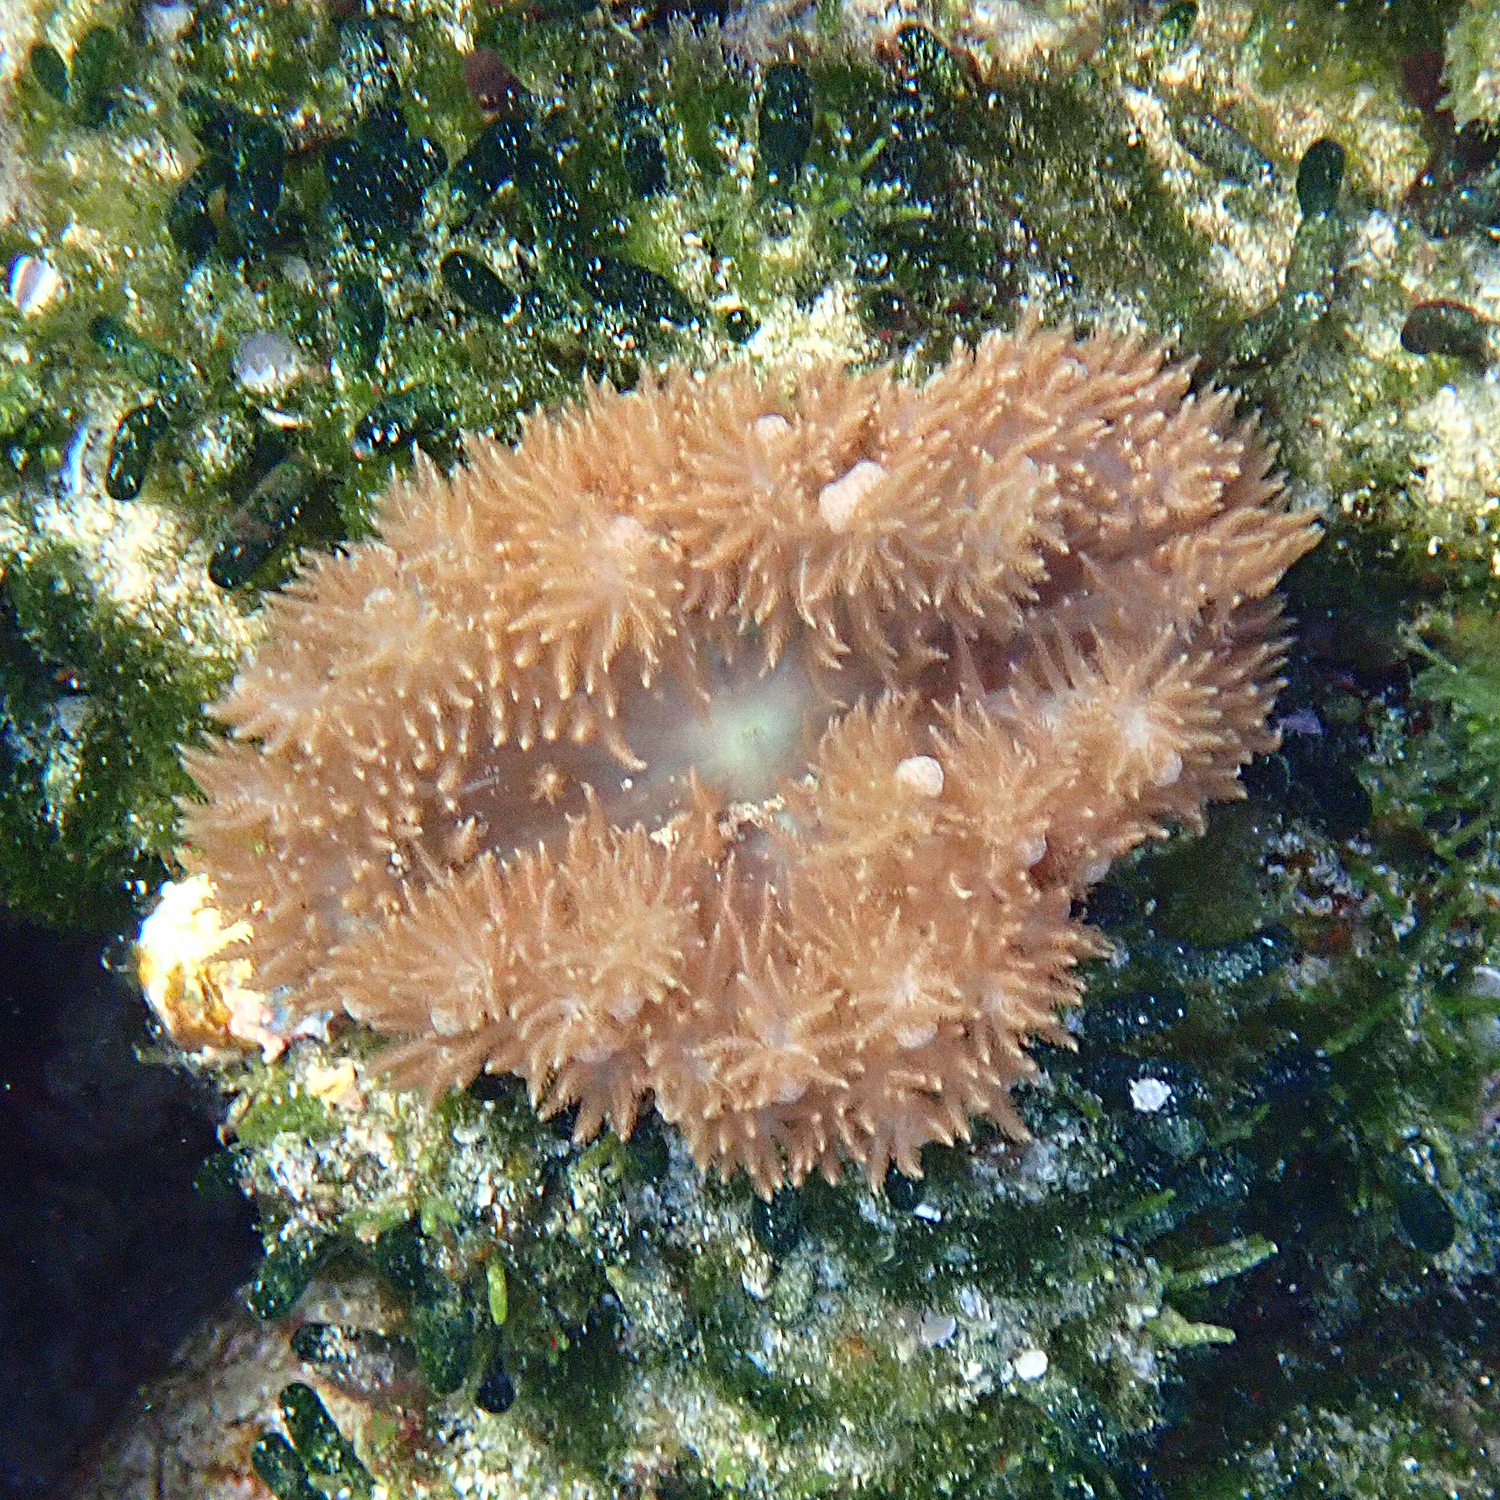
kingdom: Animalia
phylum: Cnidaria
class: Anthozoa
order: Actiniaria
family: Thalassianthidae
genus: Heterodactyla
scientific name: Heterodactyla hemprichii
